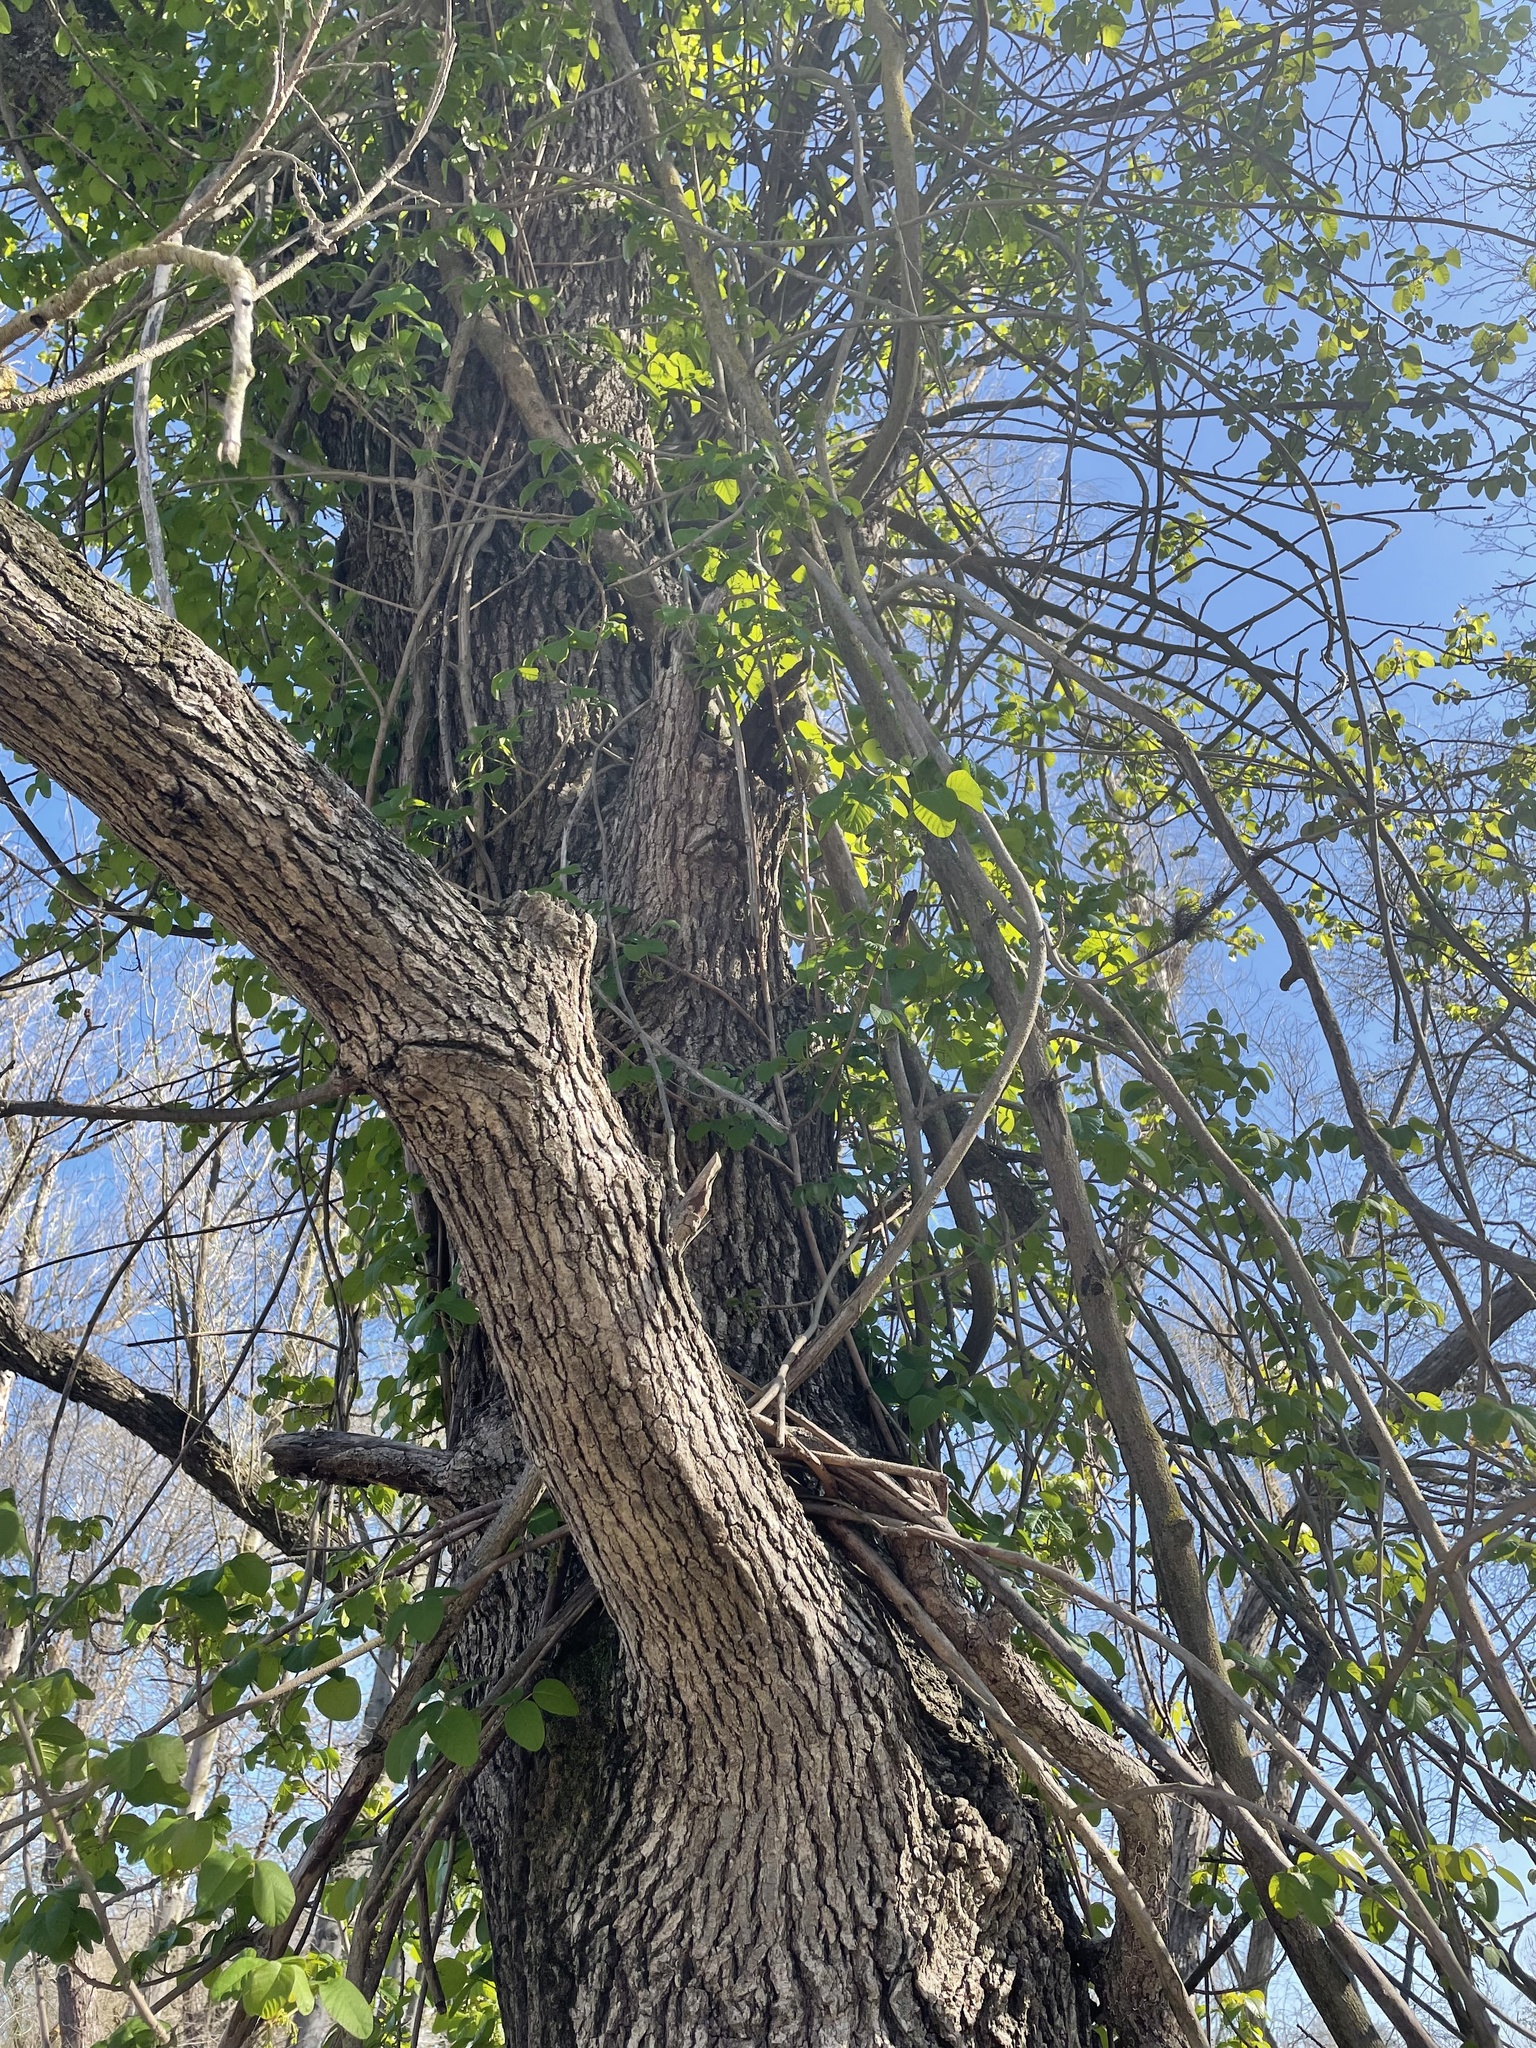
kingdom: Plantae
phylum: Tracheophyta
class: Magnoliopsida
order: Sapindales
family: Anacardiaceae
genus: Toxicodendron
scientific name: Toxicodendron diversilobum
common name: Pacific poison-oak
